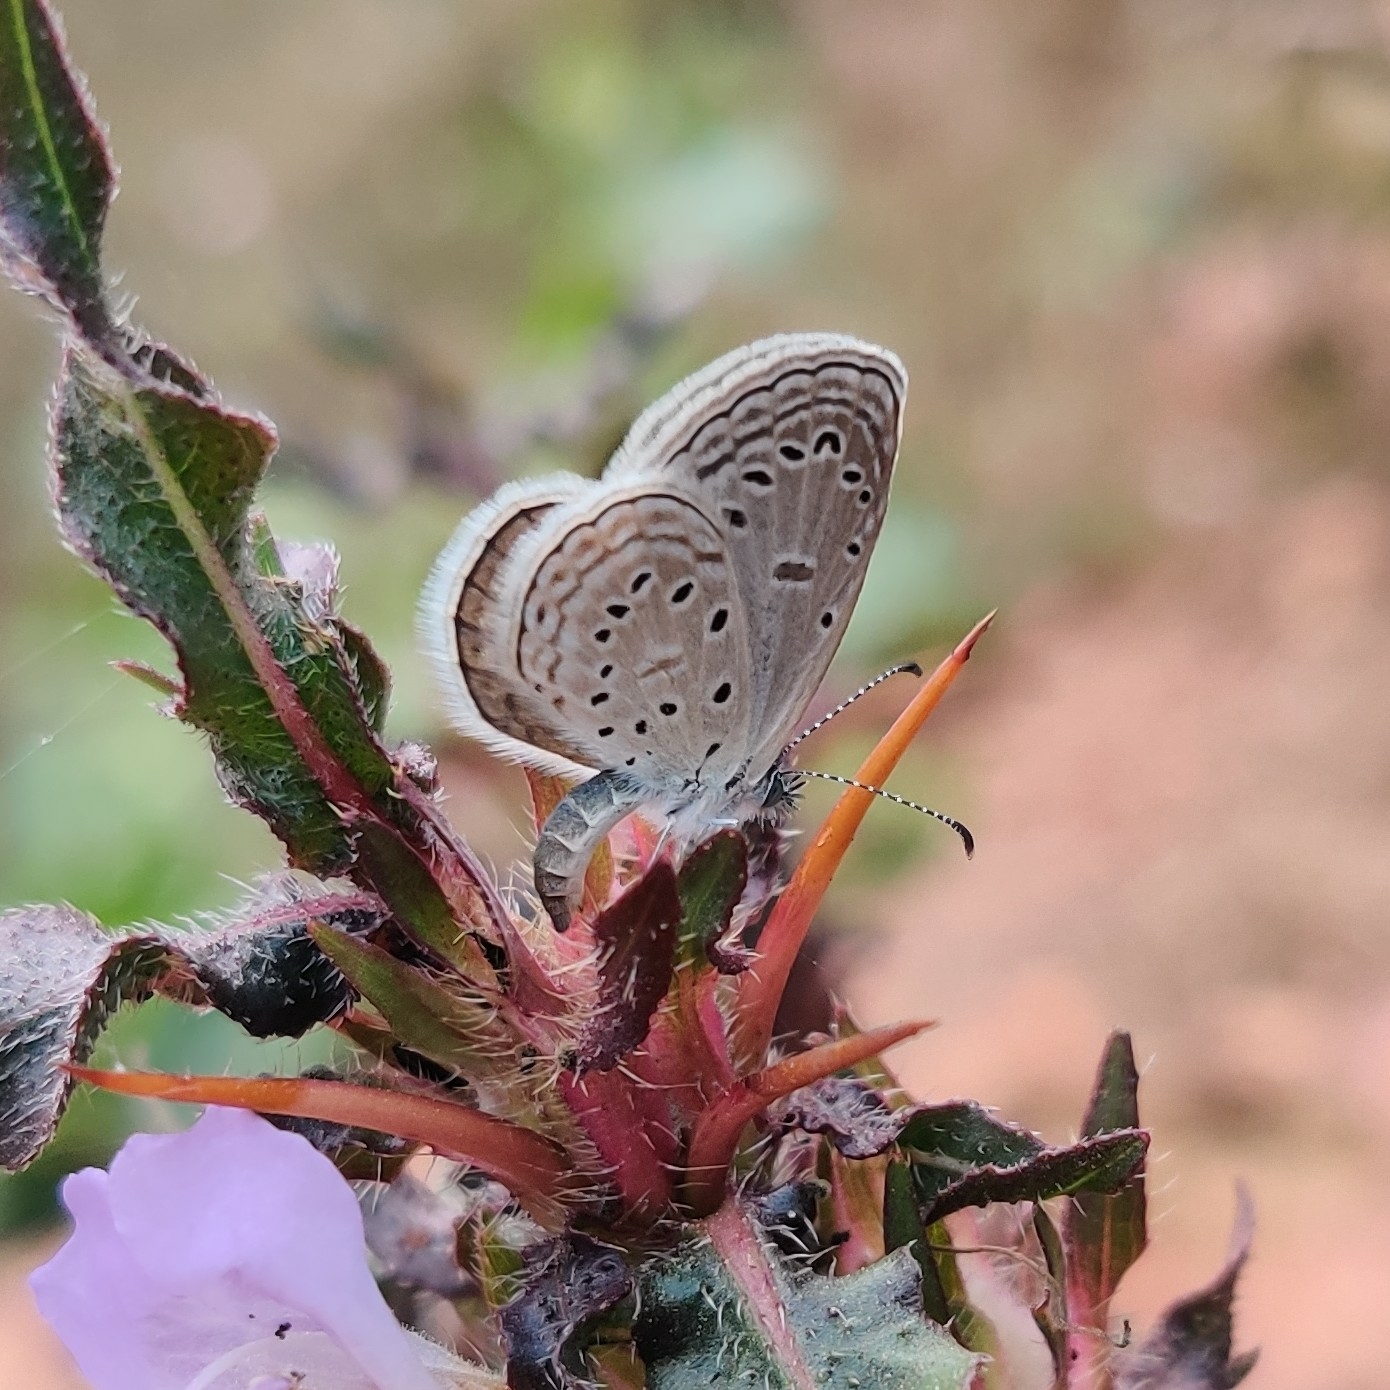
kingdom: Animalia
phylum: Arthropoda
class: Insecta
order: Lepidoptera
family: Lycaenidae
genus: Zizula
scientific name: Zizula hylax
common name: Gaika blue
